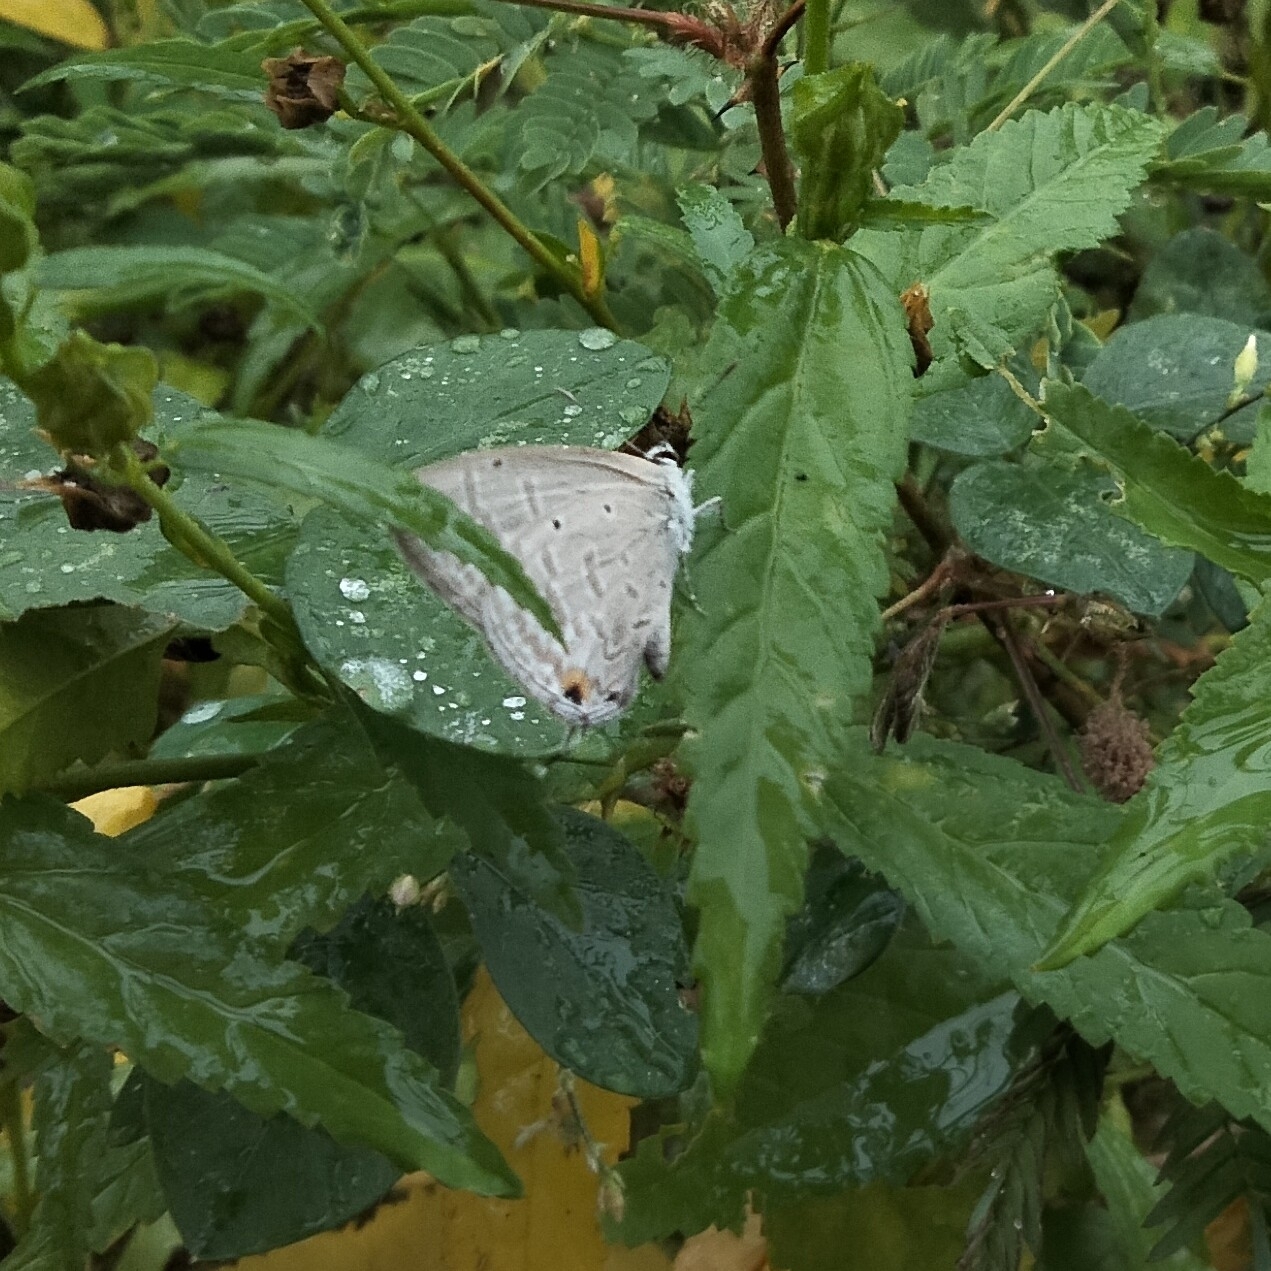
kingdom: Animalia
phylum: Arthropoda
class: Insecta
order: Lepidoptera
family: Lycaenidae
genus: Catochrysops
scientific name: Catochrysops strabo
